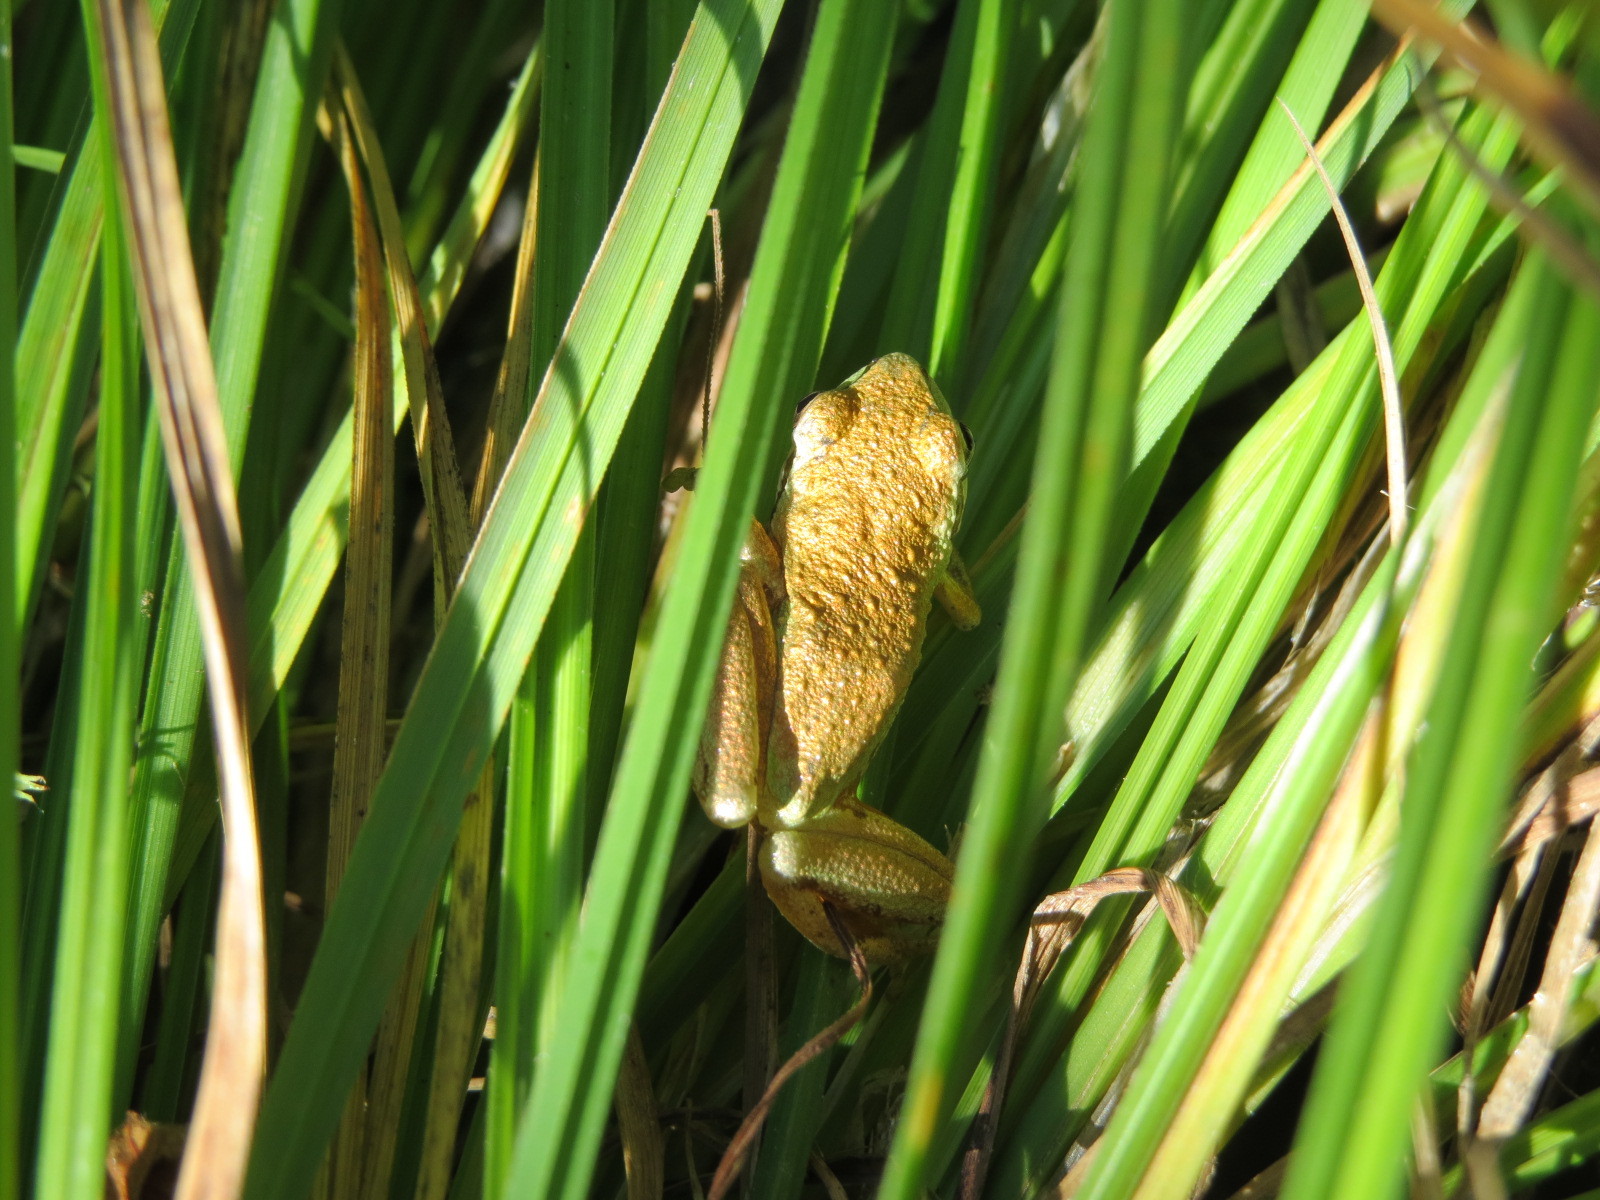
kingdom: Animalia
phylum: Chordata
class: Amphibia
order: Anura
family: Hylidae
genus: Pseudacris
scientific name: Pseudacris regilla
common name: Pacific chorus frog
